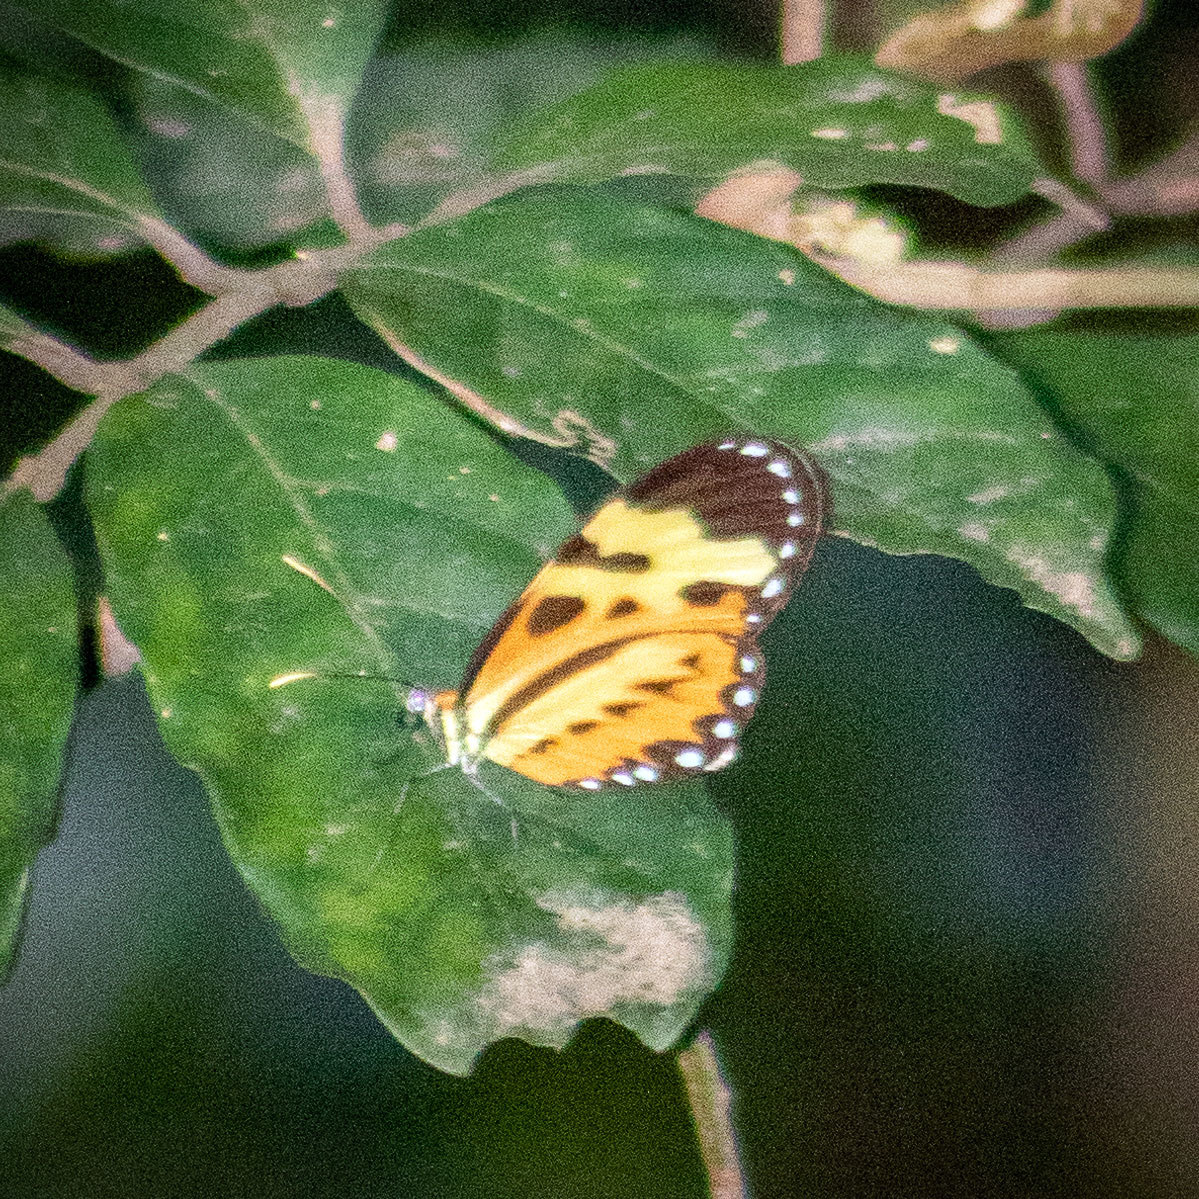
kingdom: Animalia
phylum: Arthropoda
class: Insecta
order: Lepidoptera
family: Nymphalidae
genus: Mechanitis
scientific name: Mechanitis polymnia
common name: Disturbed tigerwing
